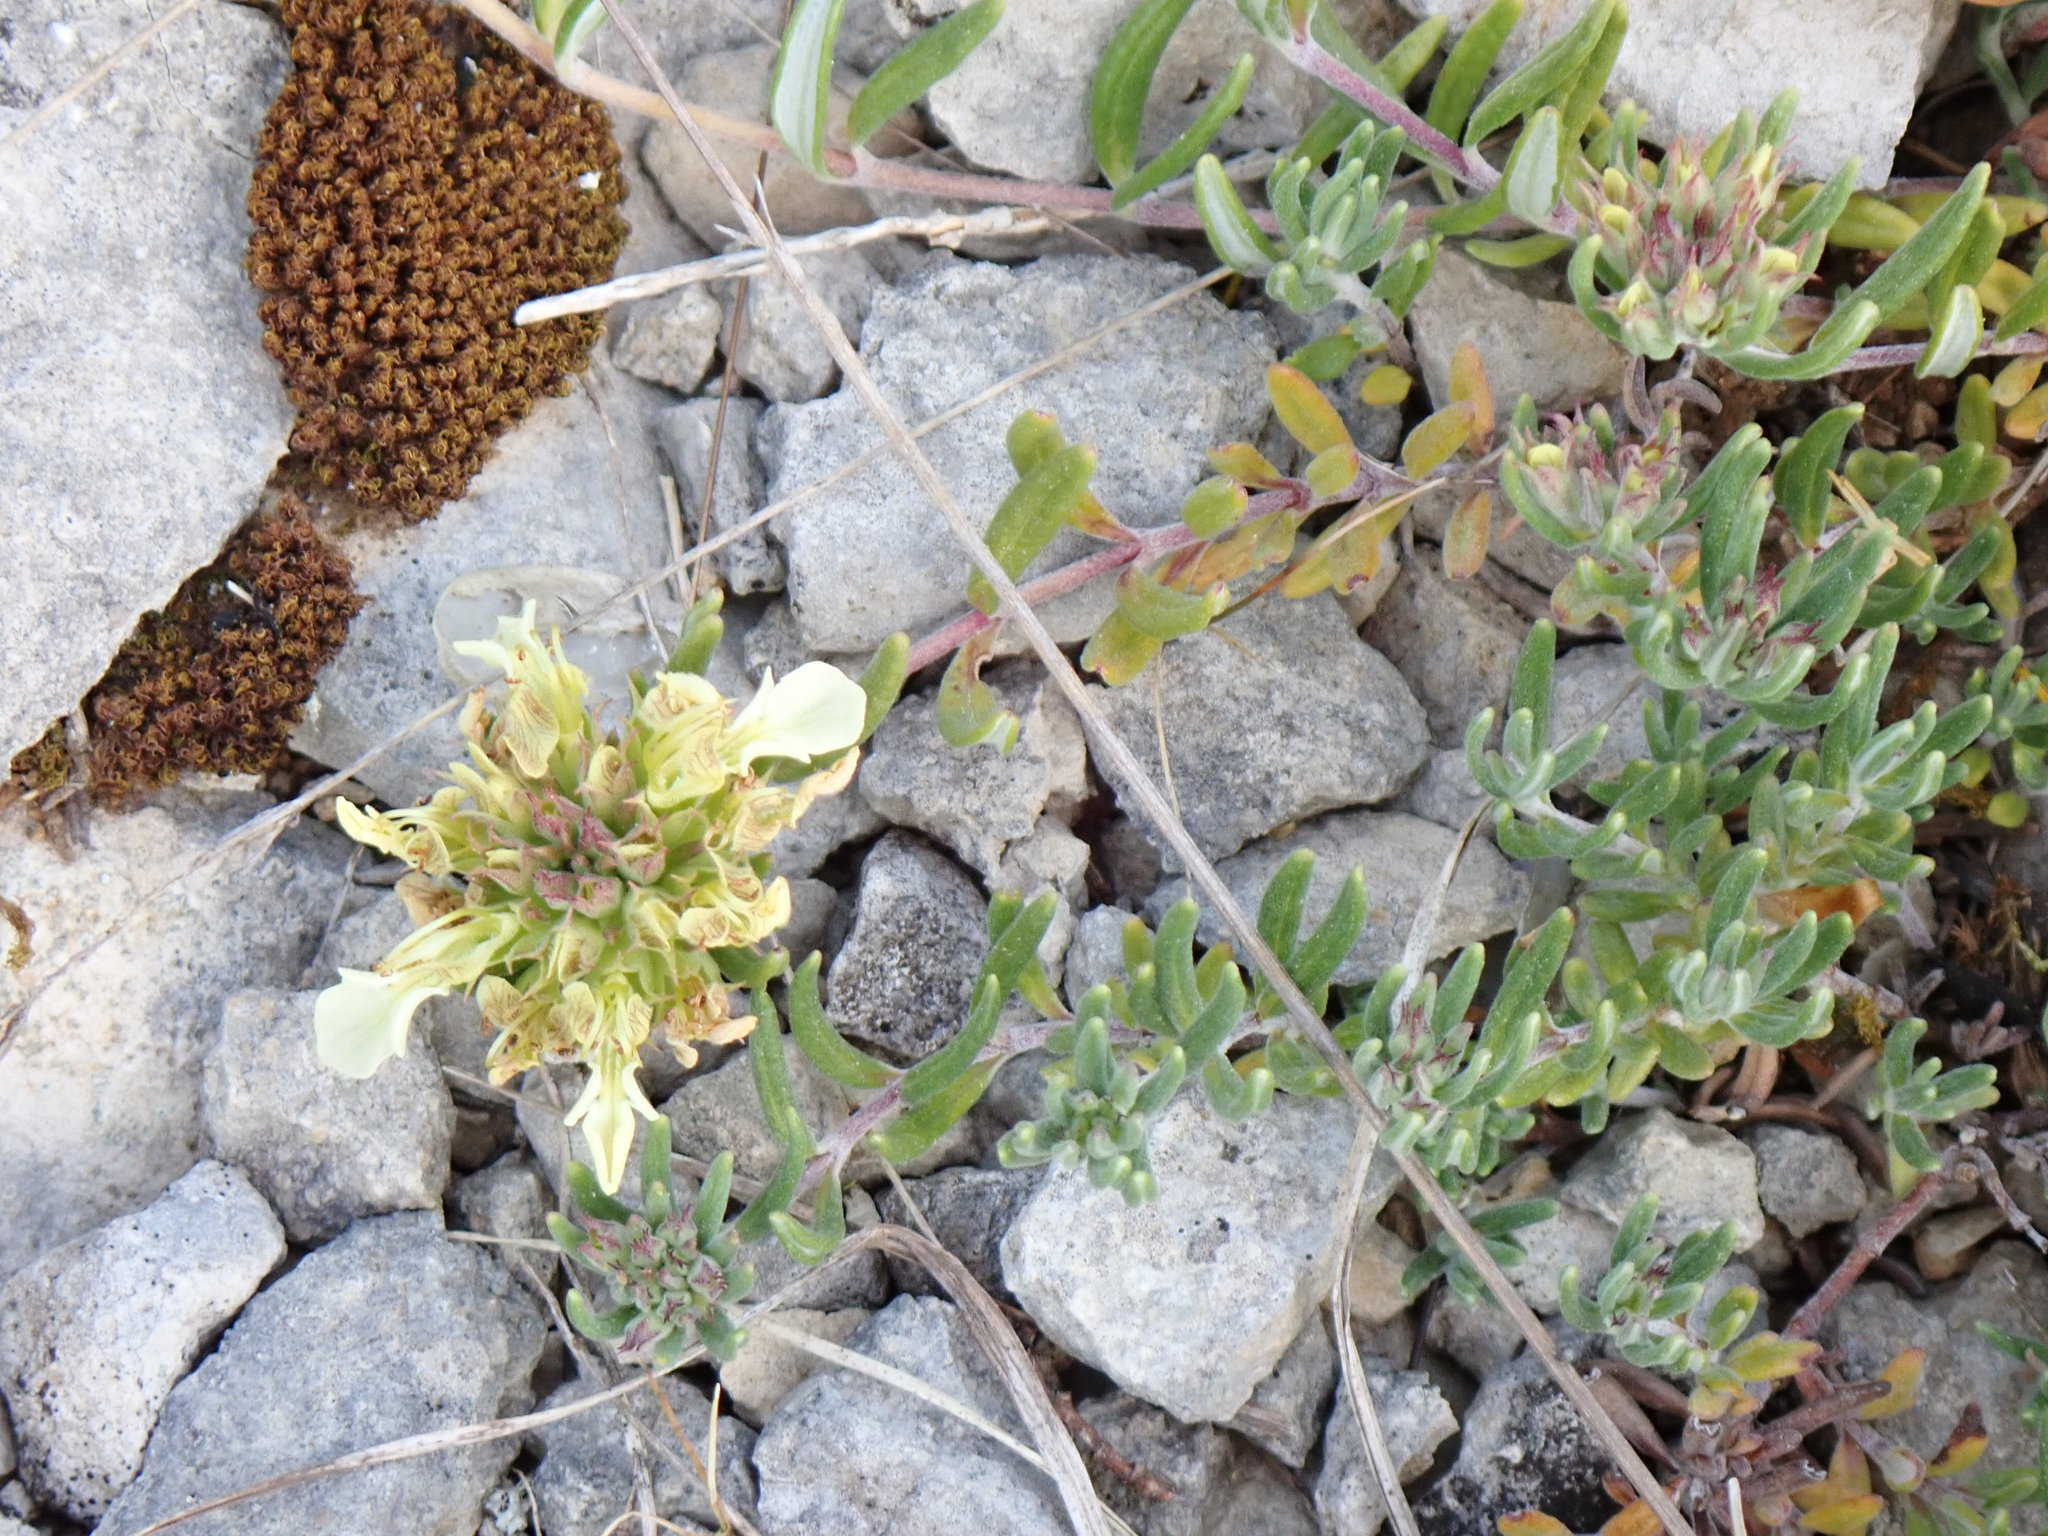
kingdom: Plantae
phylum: Tracheophyta
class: Magnoliopsida
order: Lamiales
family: Lamiaceae
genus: Teucrium
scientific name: Teucrium montanum
